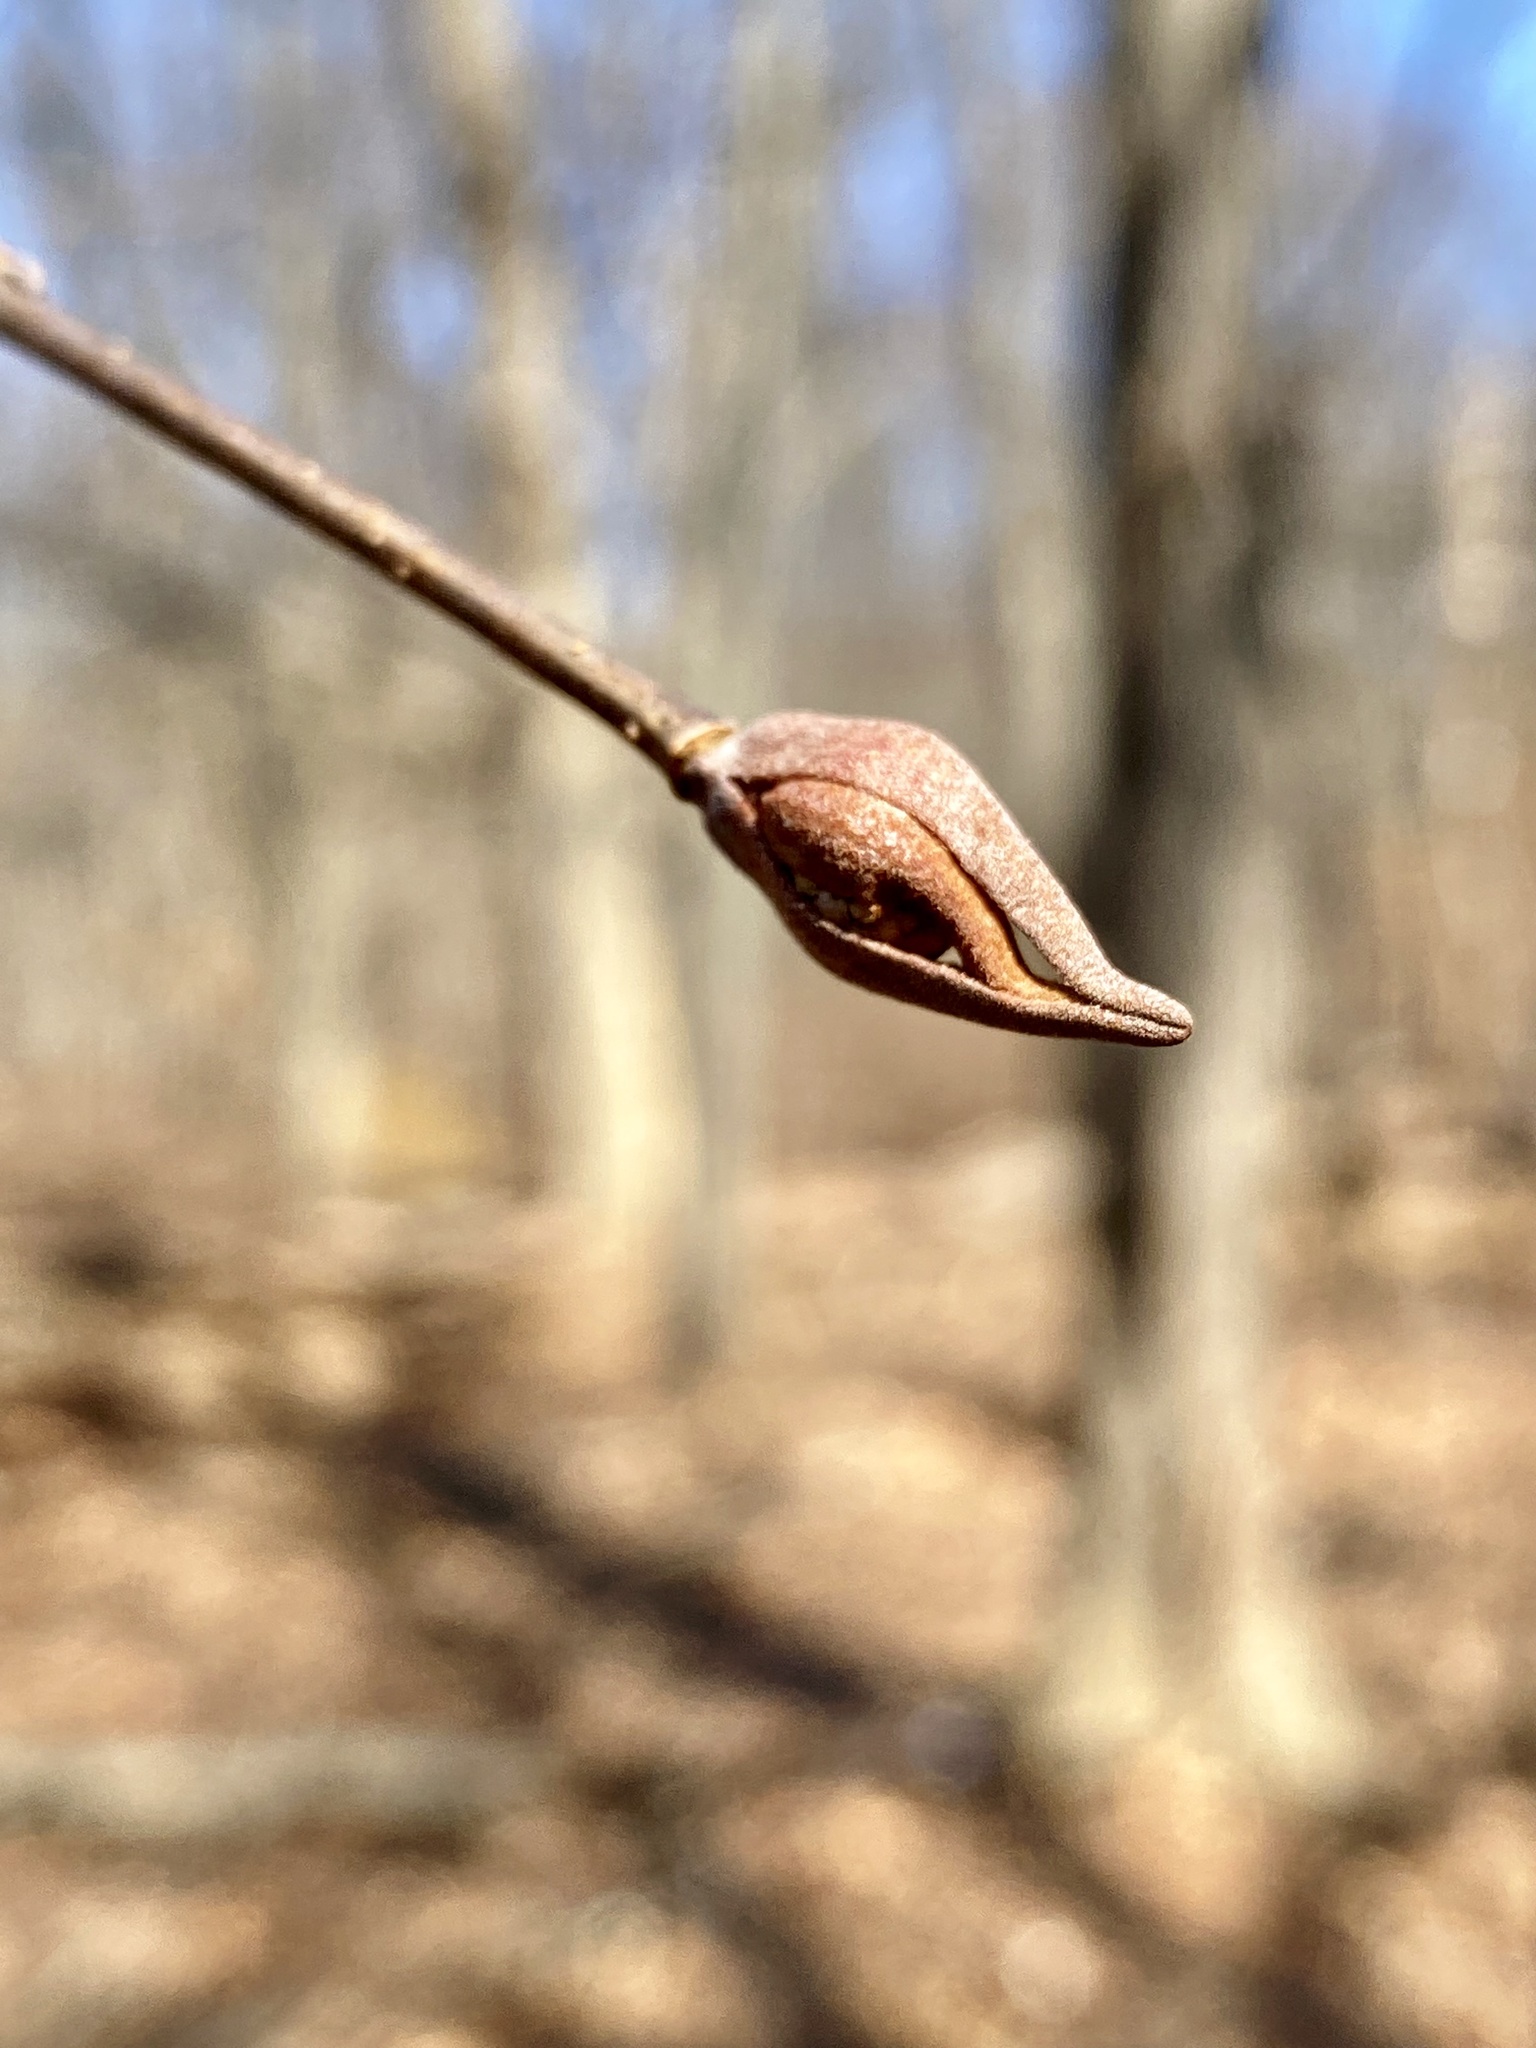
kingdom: Plantae
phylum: Tracheophyta
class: Magnoliopsida
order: Dipsacales
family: Viburnaceae
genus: Viburnum
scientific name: Viburnum prunifolium
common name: Black haw
